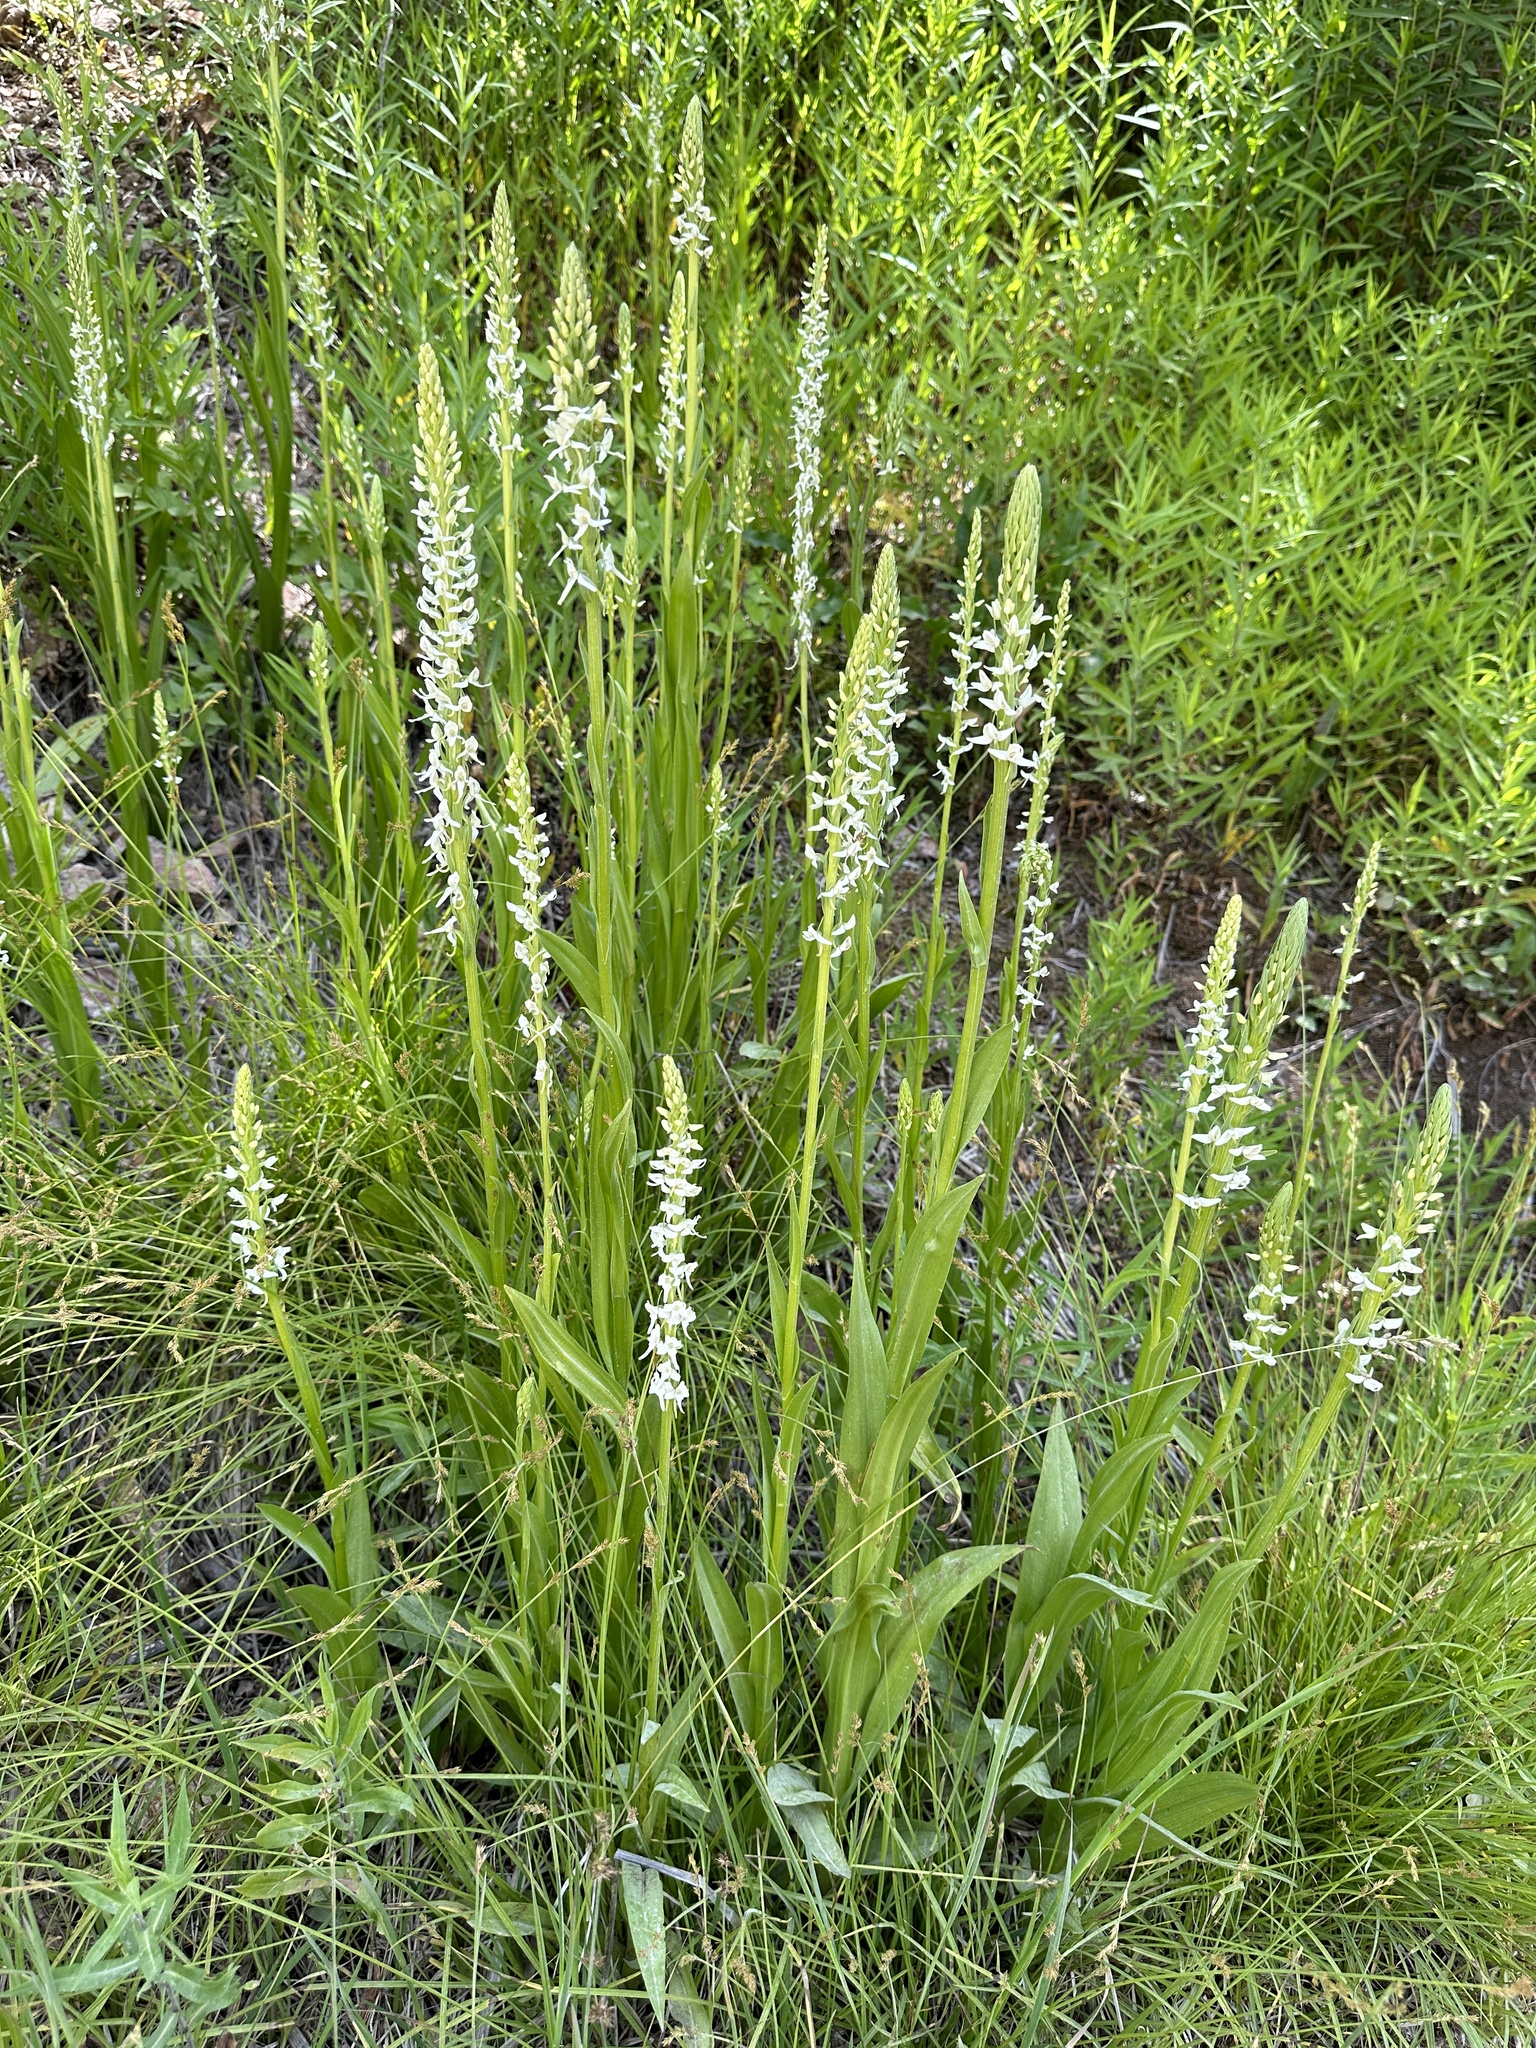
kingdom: Plantae
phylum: Tracheophyta
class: Liliopsida
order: Asparagales
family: Orchidaceae
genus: Platanthera
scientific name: Platanthera dilatata
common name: Bog candles
